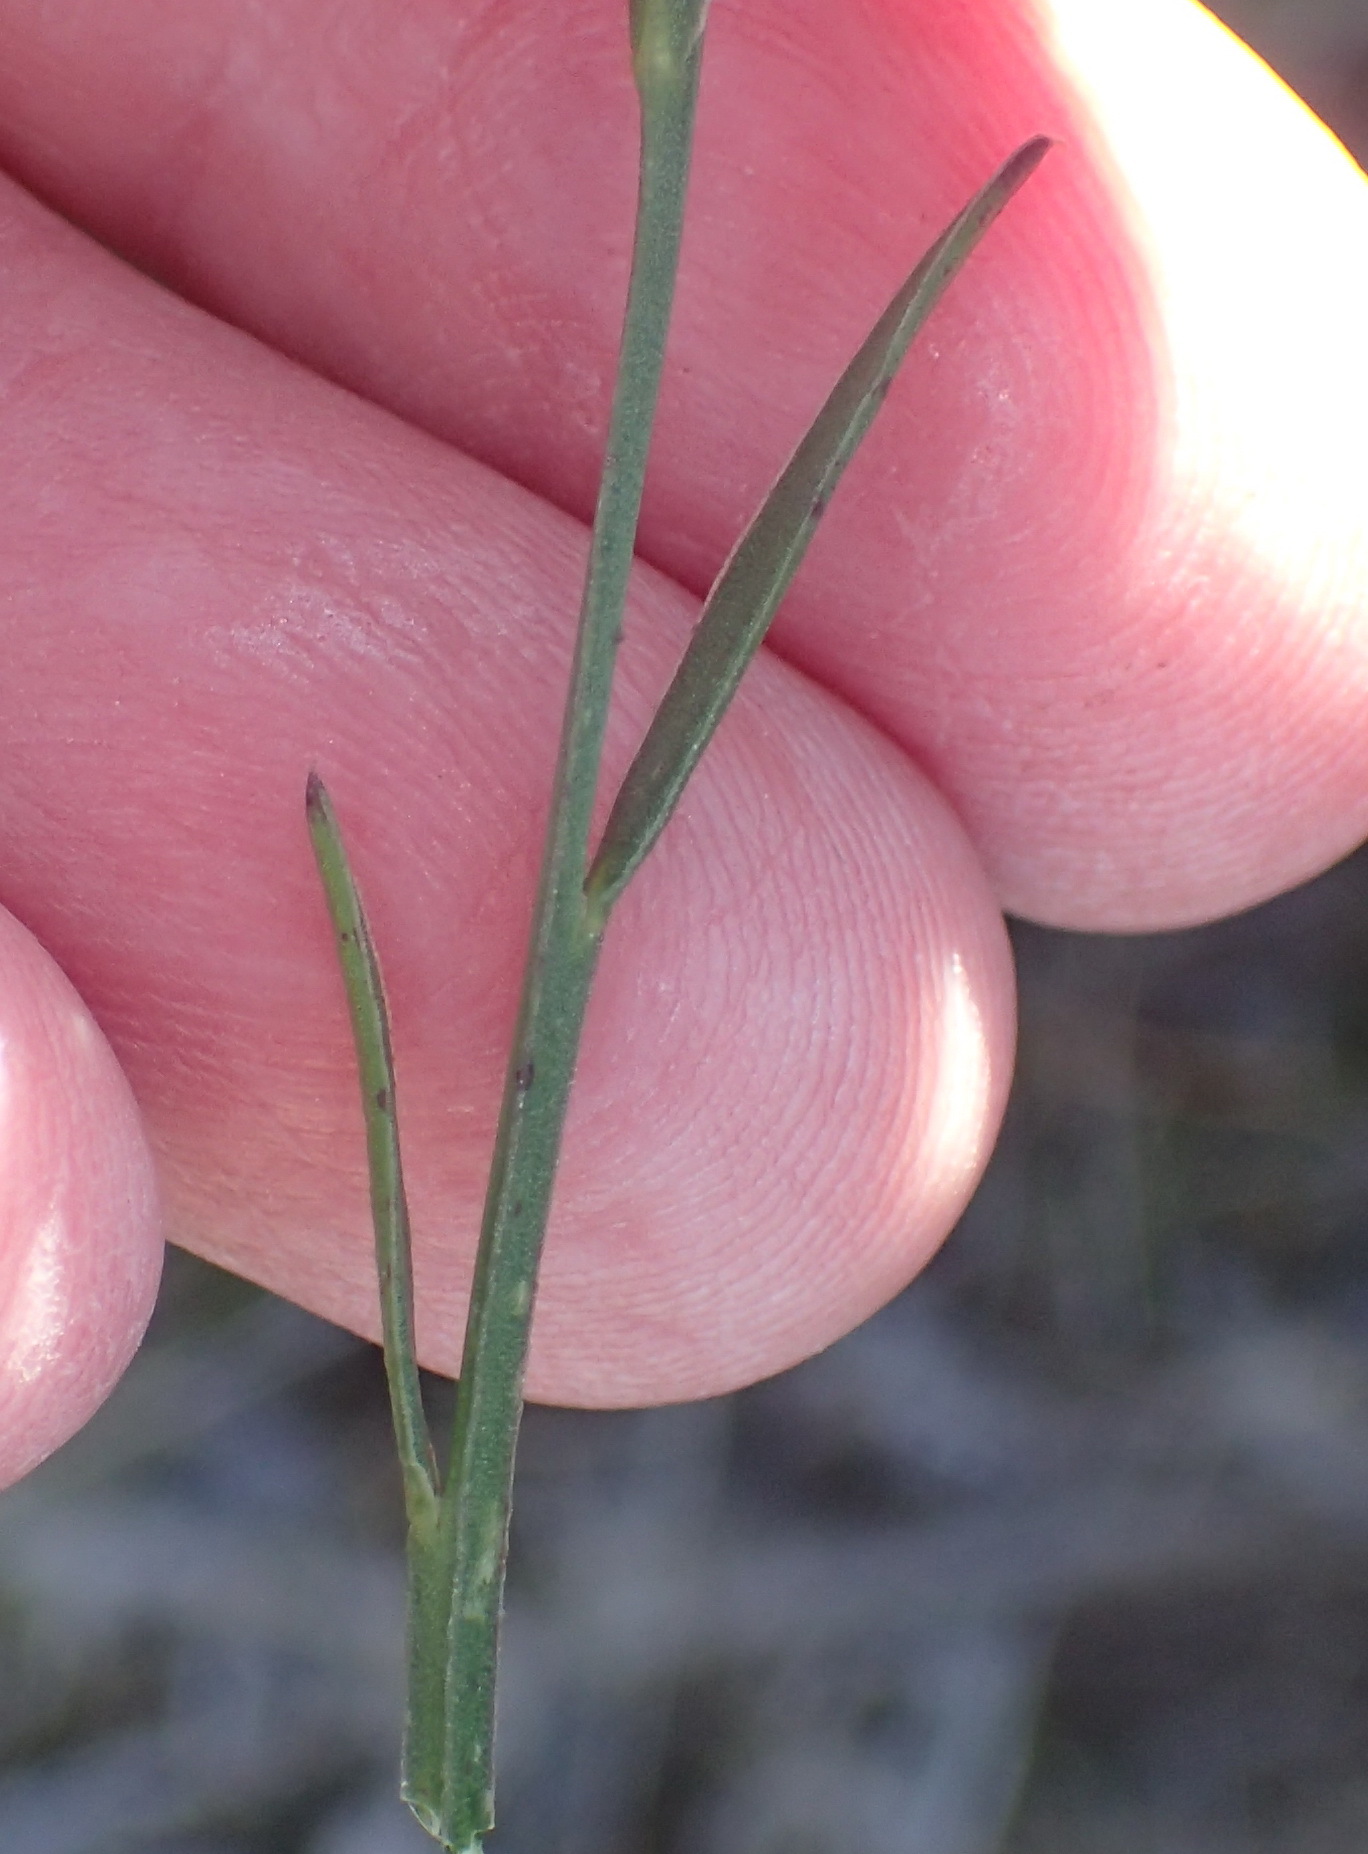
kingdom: Plantae
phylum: Tracheophyta
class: Magnoliopsida
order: Fabales
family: Polygalaceae
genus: Polygala
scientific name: Polygala triquetra
